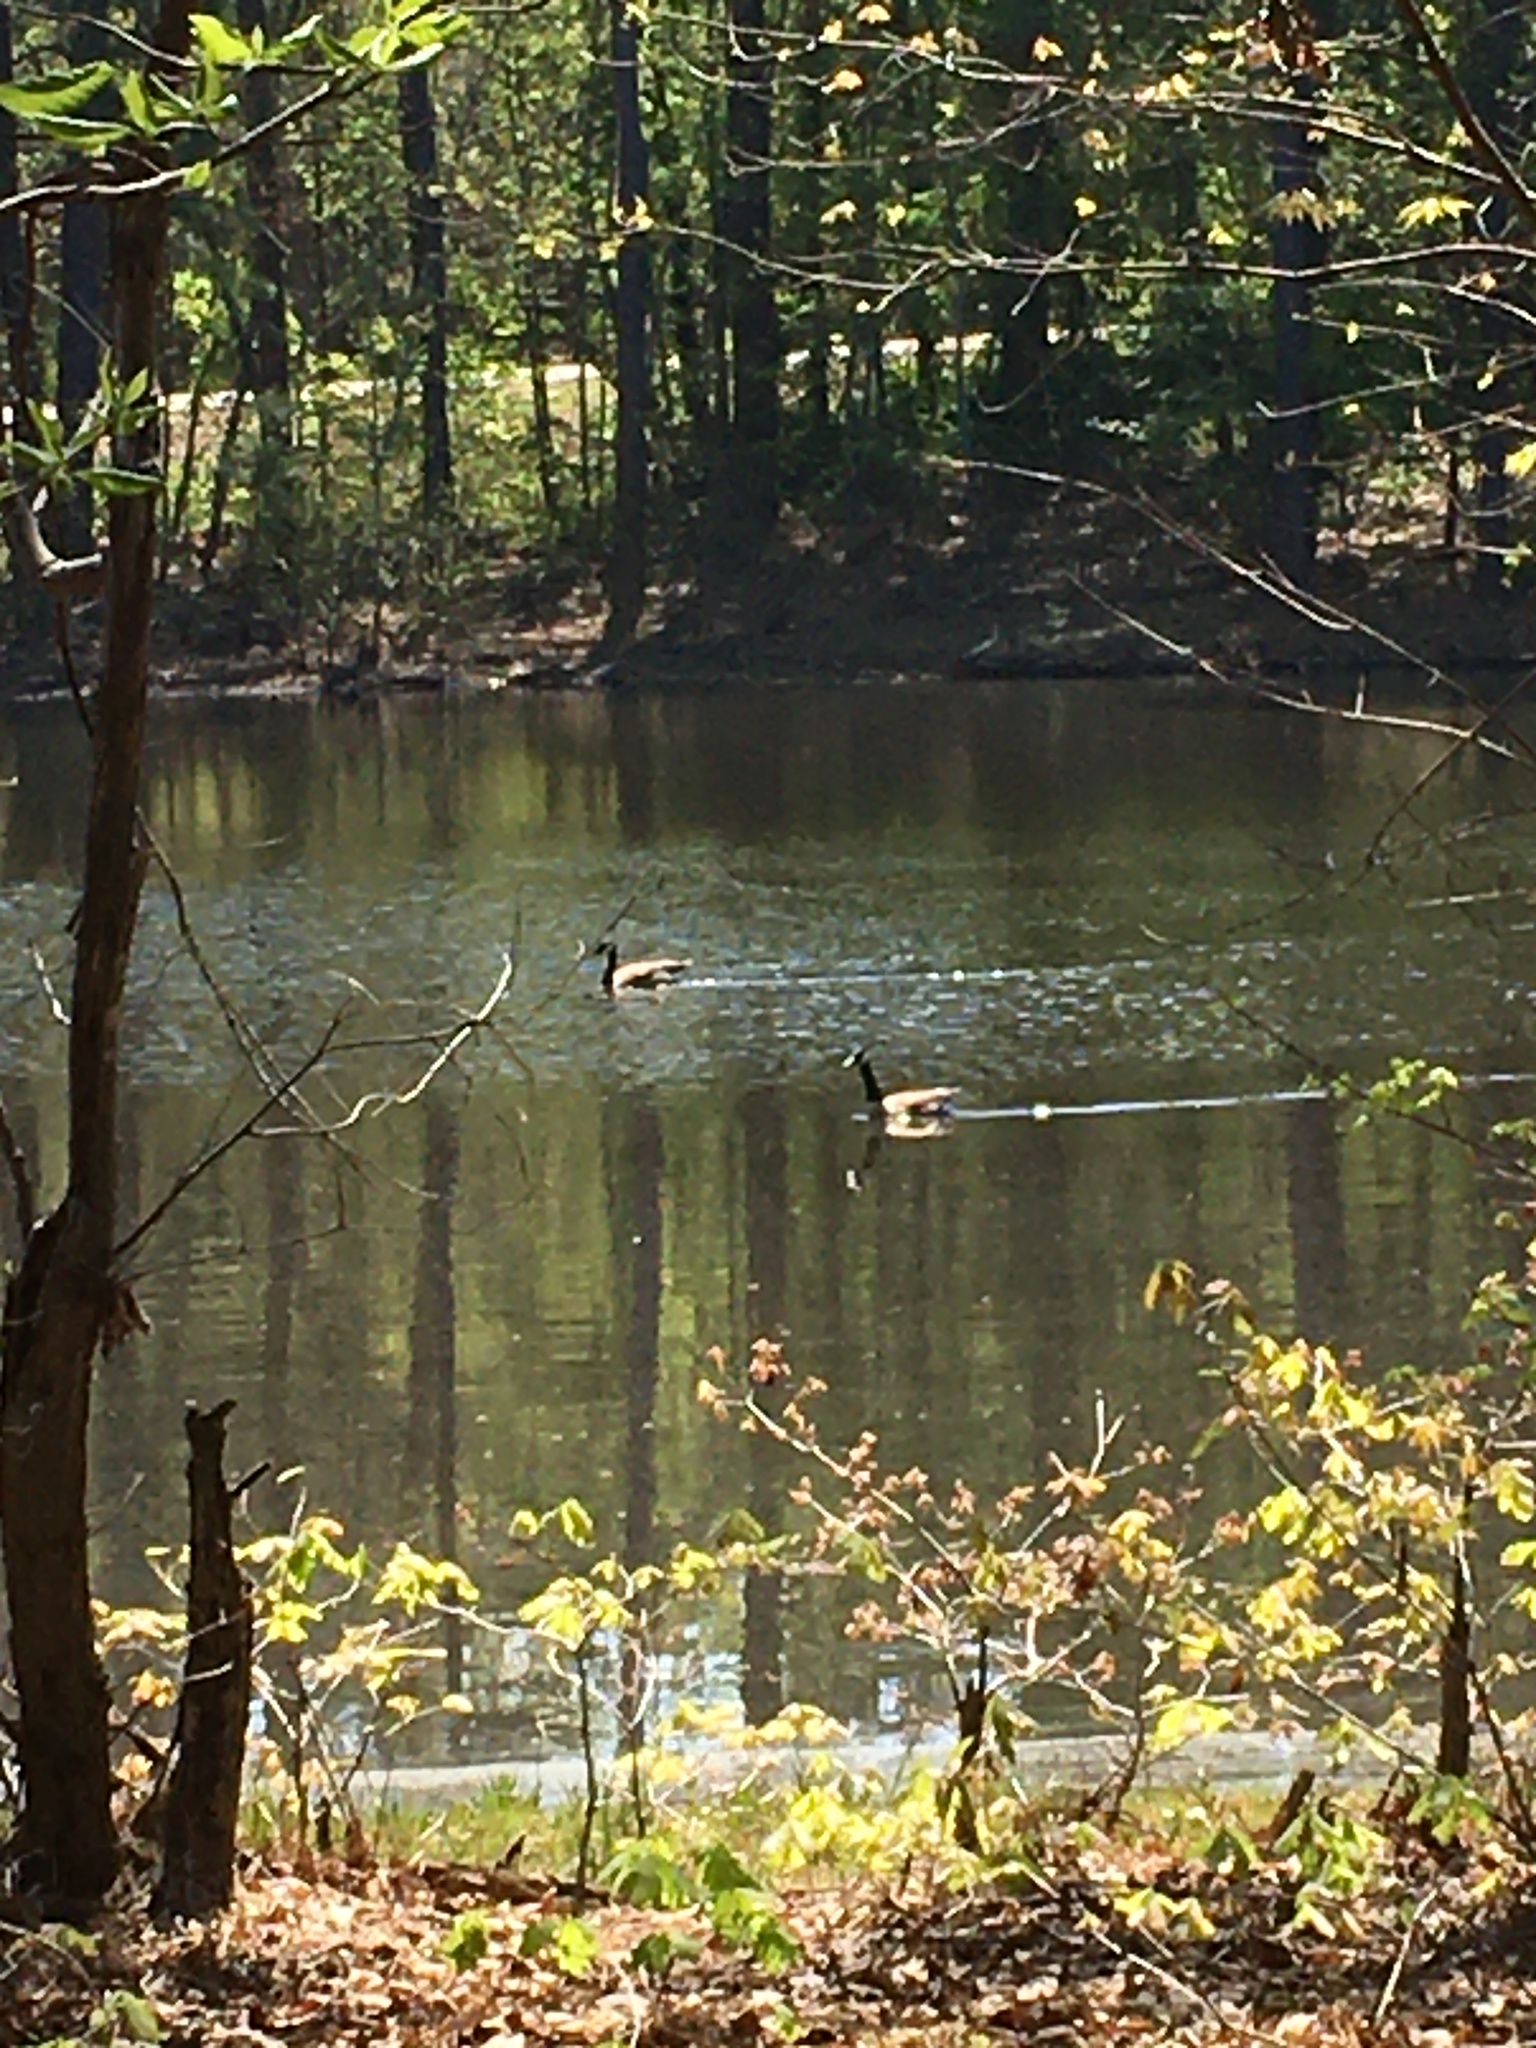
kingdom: Animalia
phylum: Chordata
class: Aves
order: Anseriformes
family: Anatidae
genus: Branta
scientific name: Branta canadensis
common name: Canada goose
